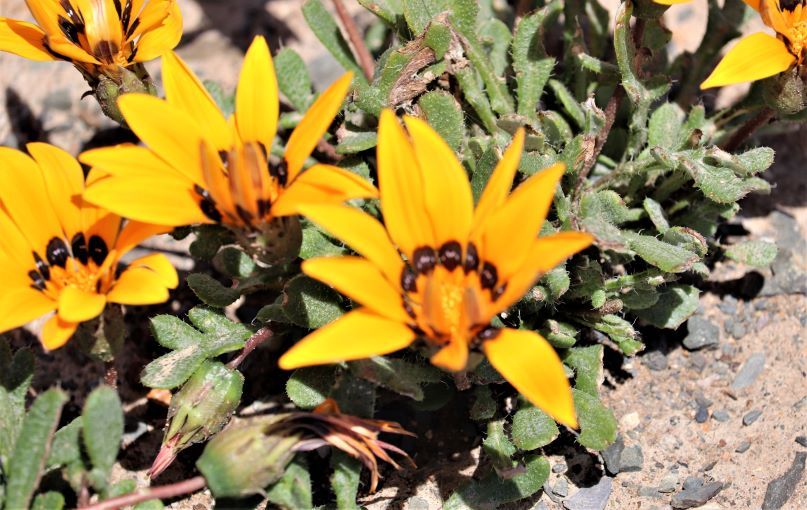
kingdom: Plantae
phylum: Tracheophyta
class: Magnoliopsida
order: Asterales
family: Asteraceae
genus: Gazania
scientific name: Gazania heterochaeta
